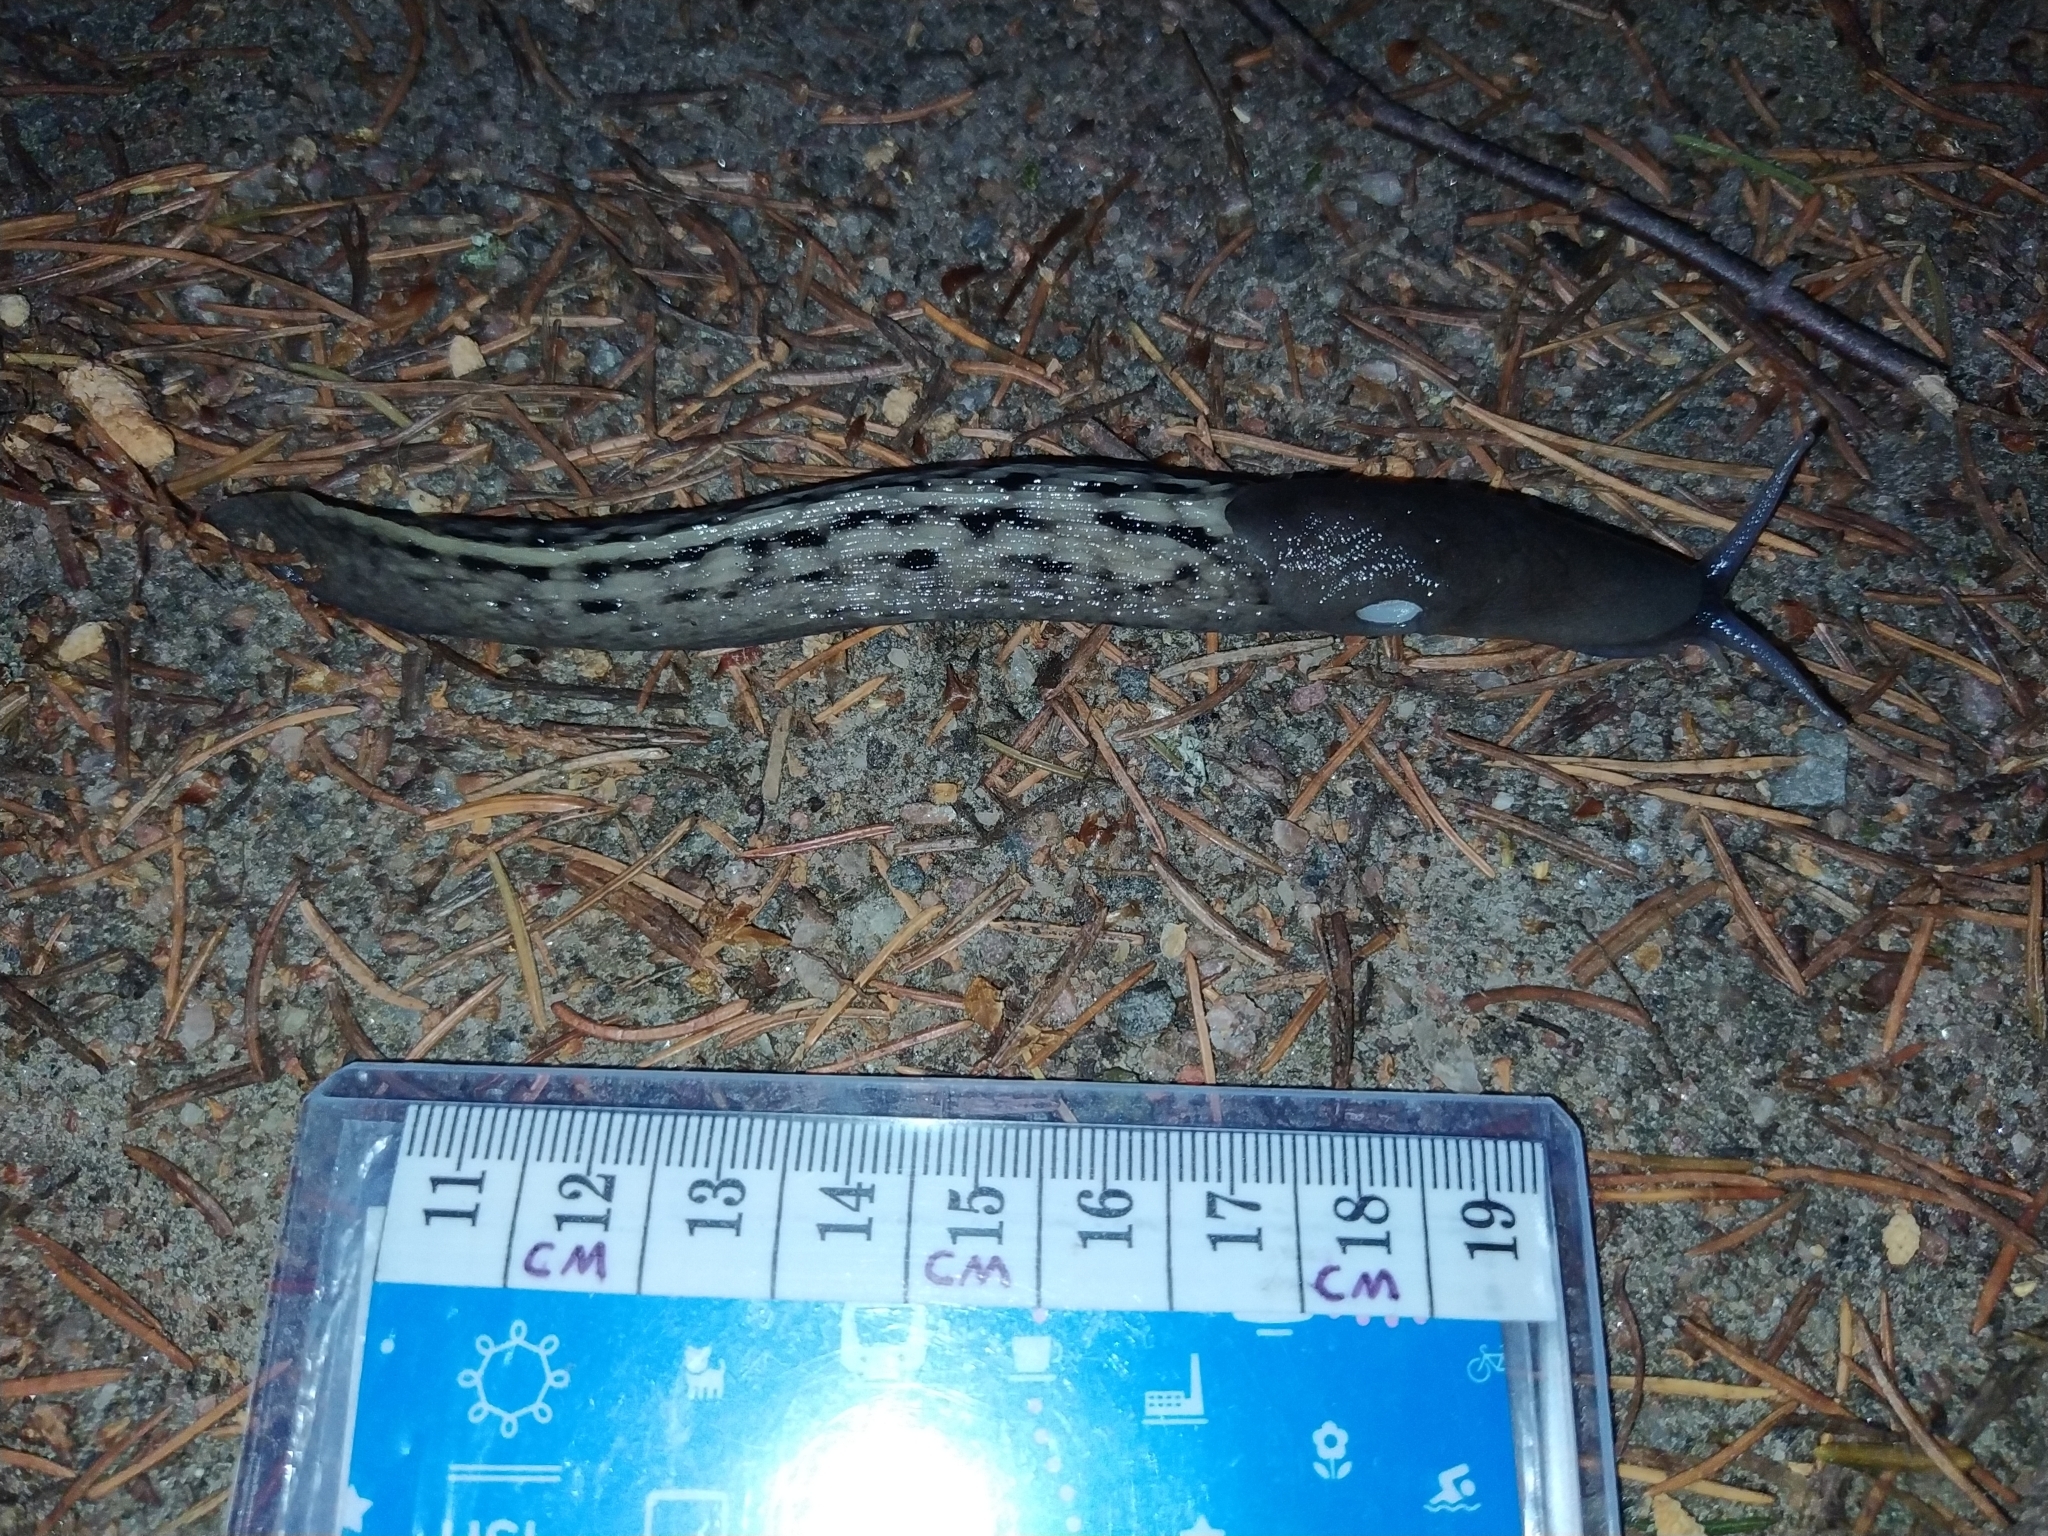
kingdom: Animalia
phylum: Mollusca
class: Gastropoda
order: Stylommatophora
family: Limacidae
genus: Limax
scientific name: Limax cinereoniger
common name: Ash-black slug
